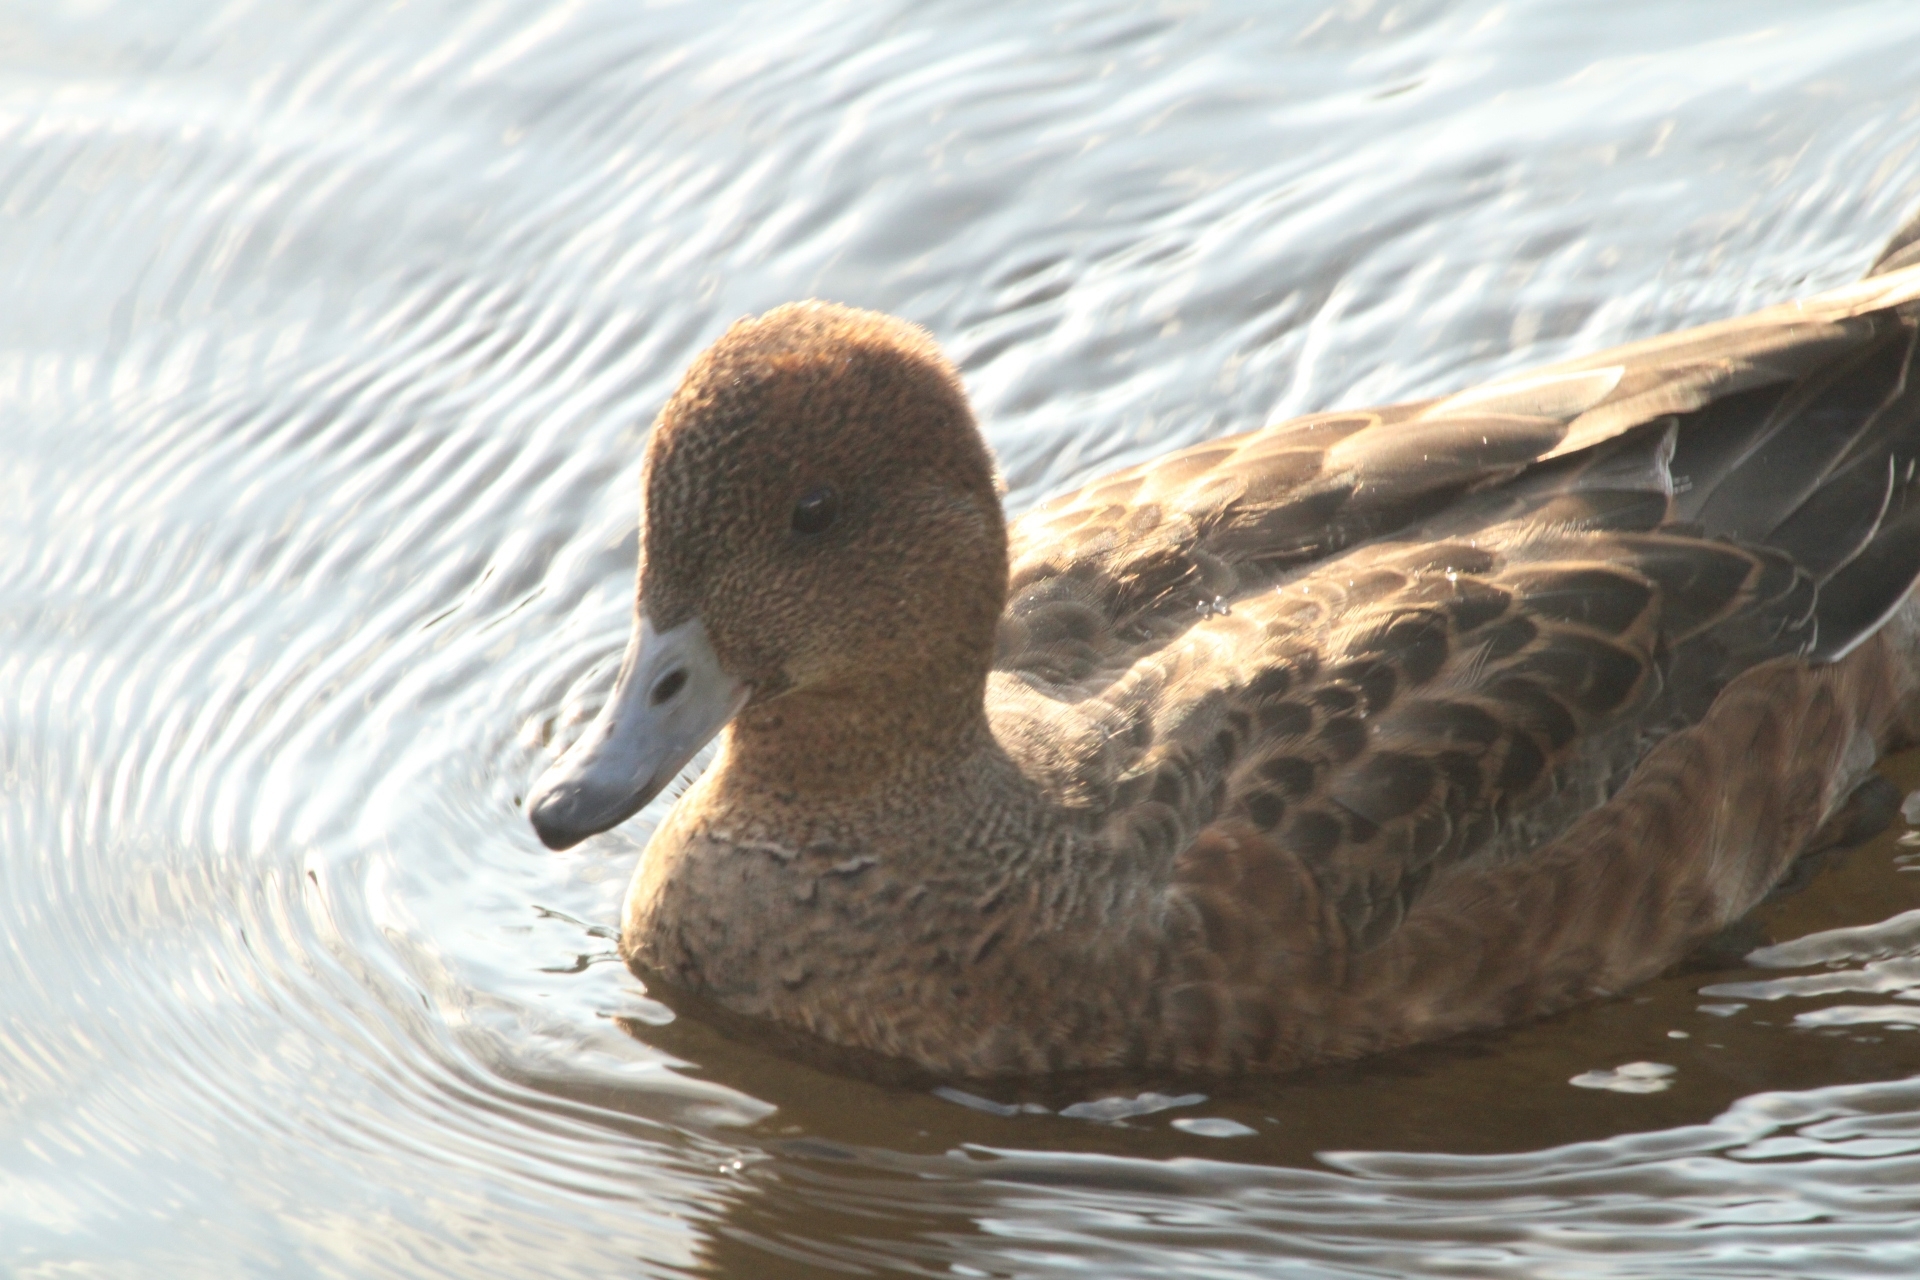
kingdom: Animalia
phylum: Chordata
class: Aves
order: Anseriformes
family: Anatidae
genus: Mareca
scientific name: Mareca penelope
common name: Eurasian wigeon
